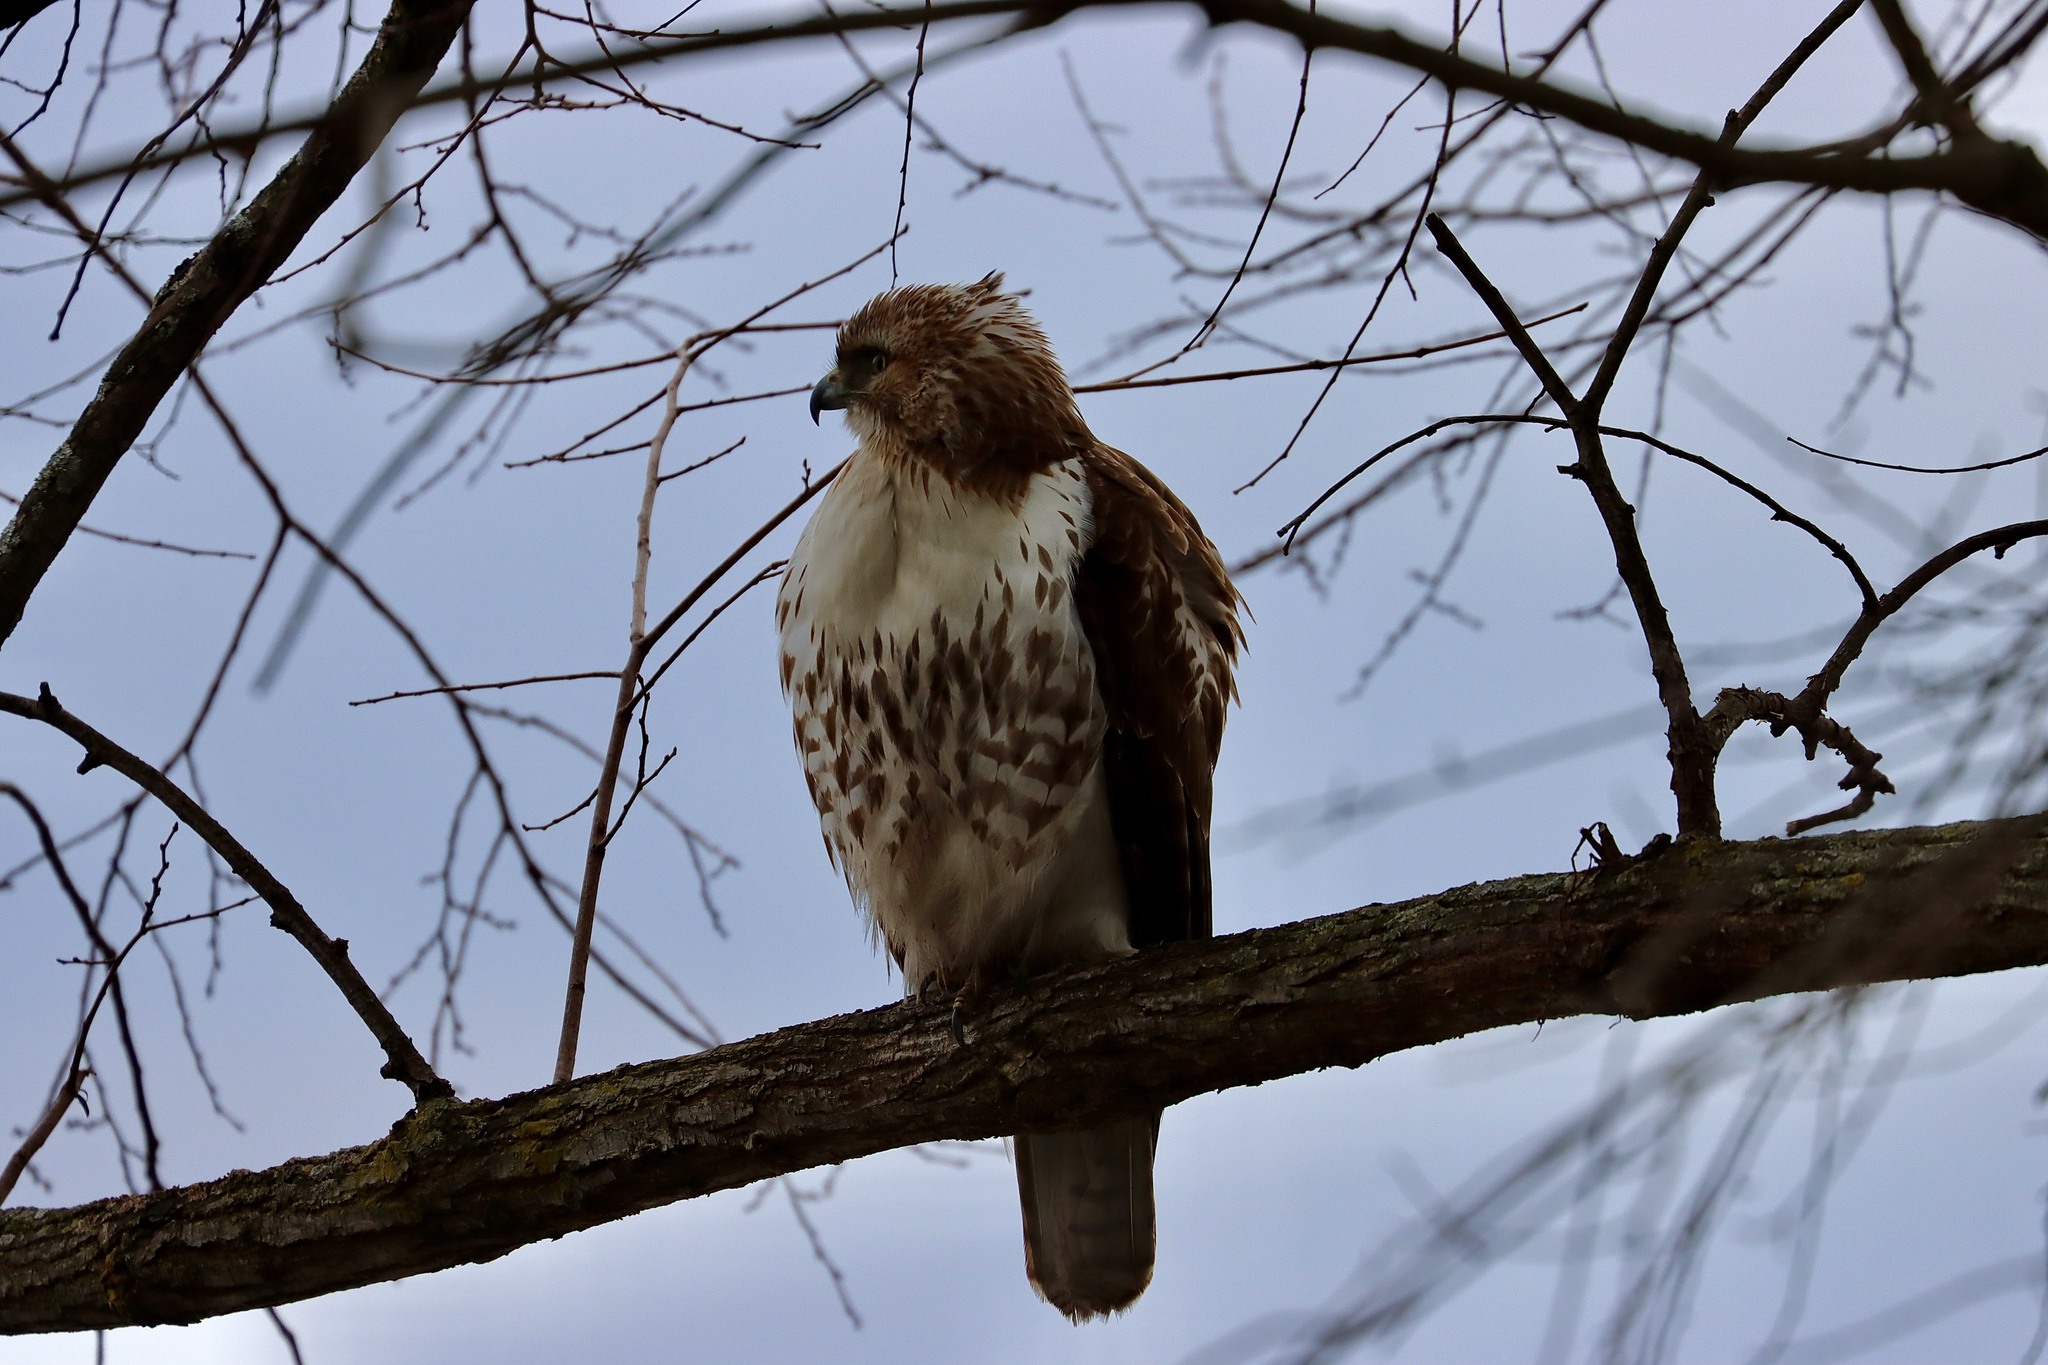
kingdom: Animalia
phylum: Chordata
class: Aves
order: Accipitriformes
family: Accipitridae
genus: Buteo
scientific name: Buteo jamaicensis
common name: Red-tailed hawk
